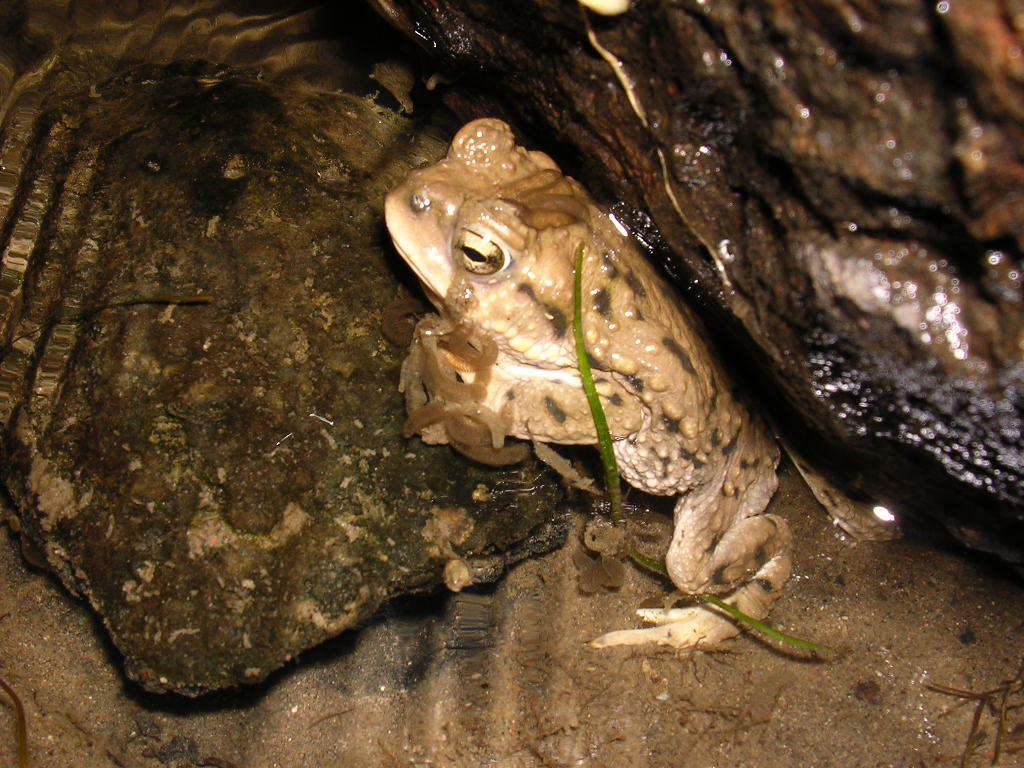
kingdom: Animalia
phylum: Chordata
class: Amphibia
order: Anura
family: Bufonidae
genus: Rhinella
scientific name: Rhinella spinulosa
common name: Warty toad
